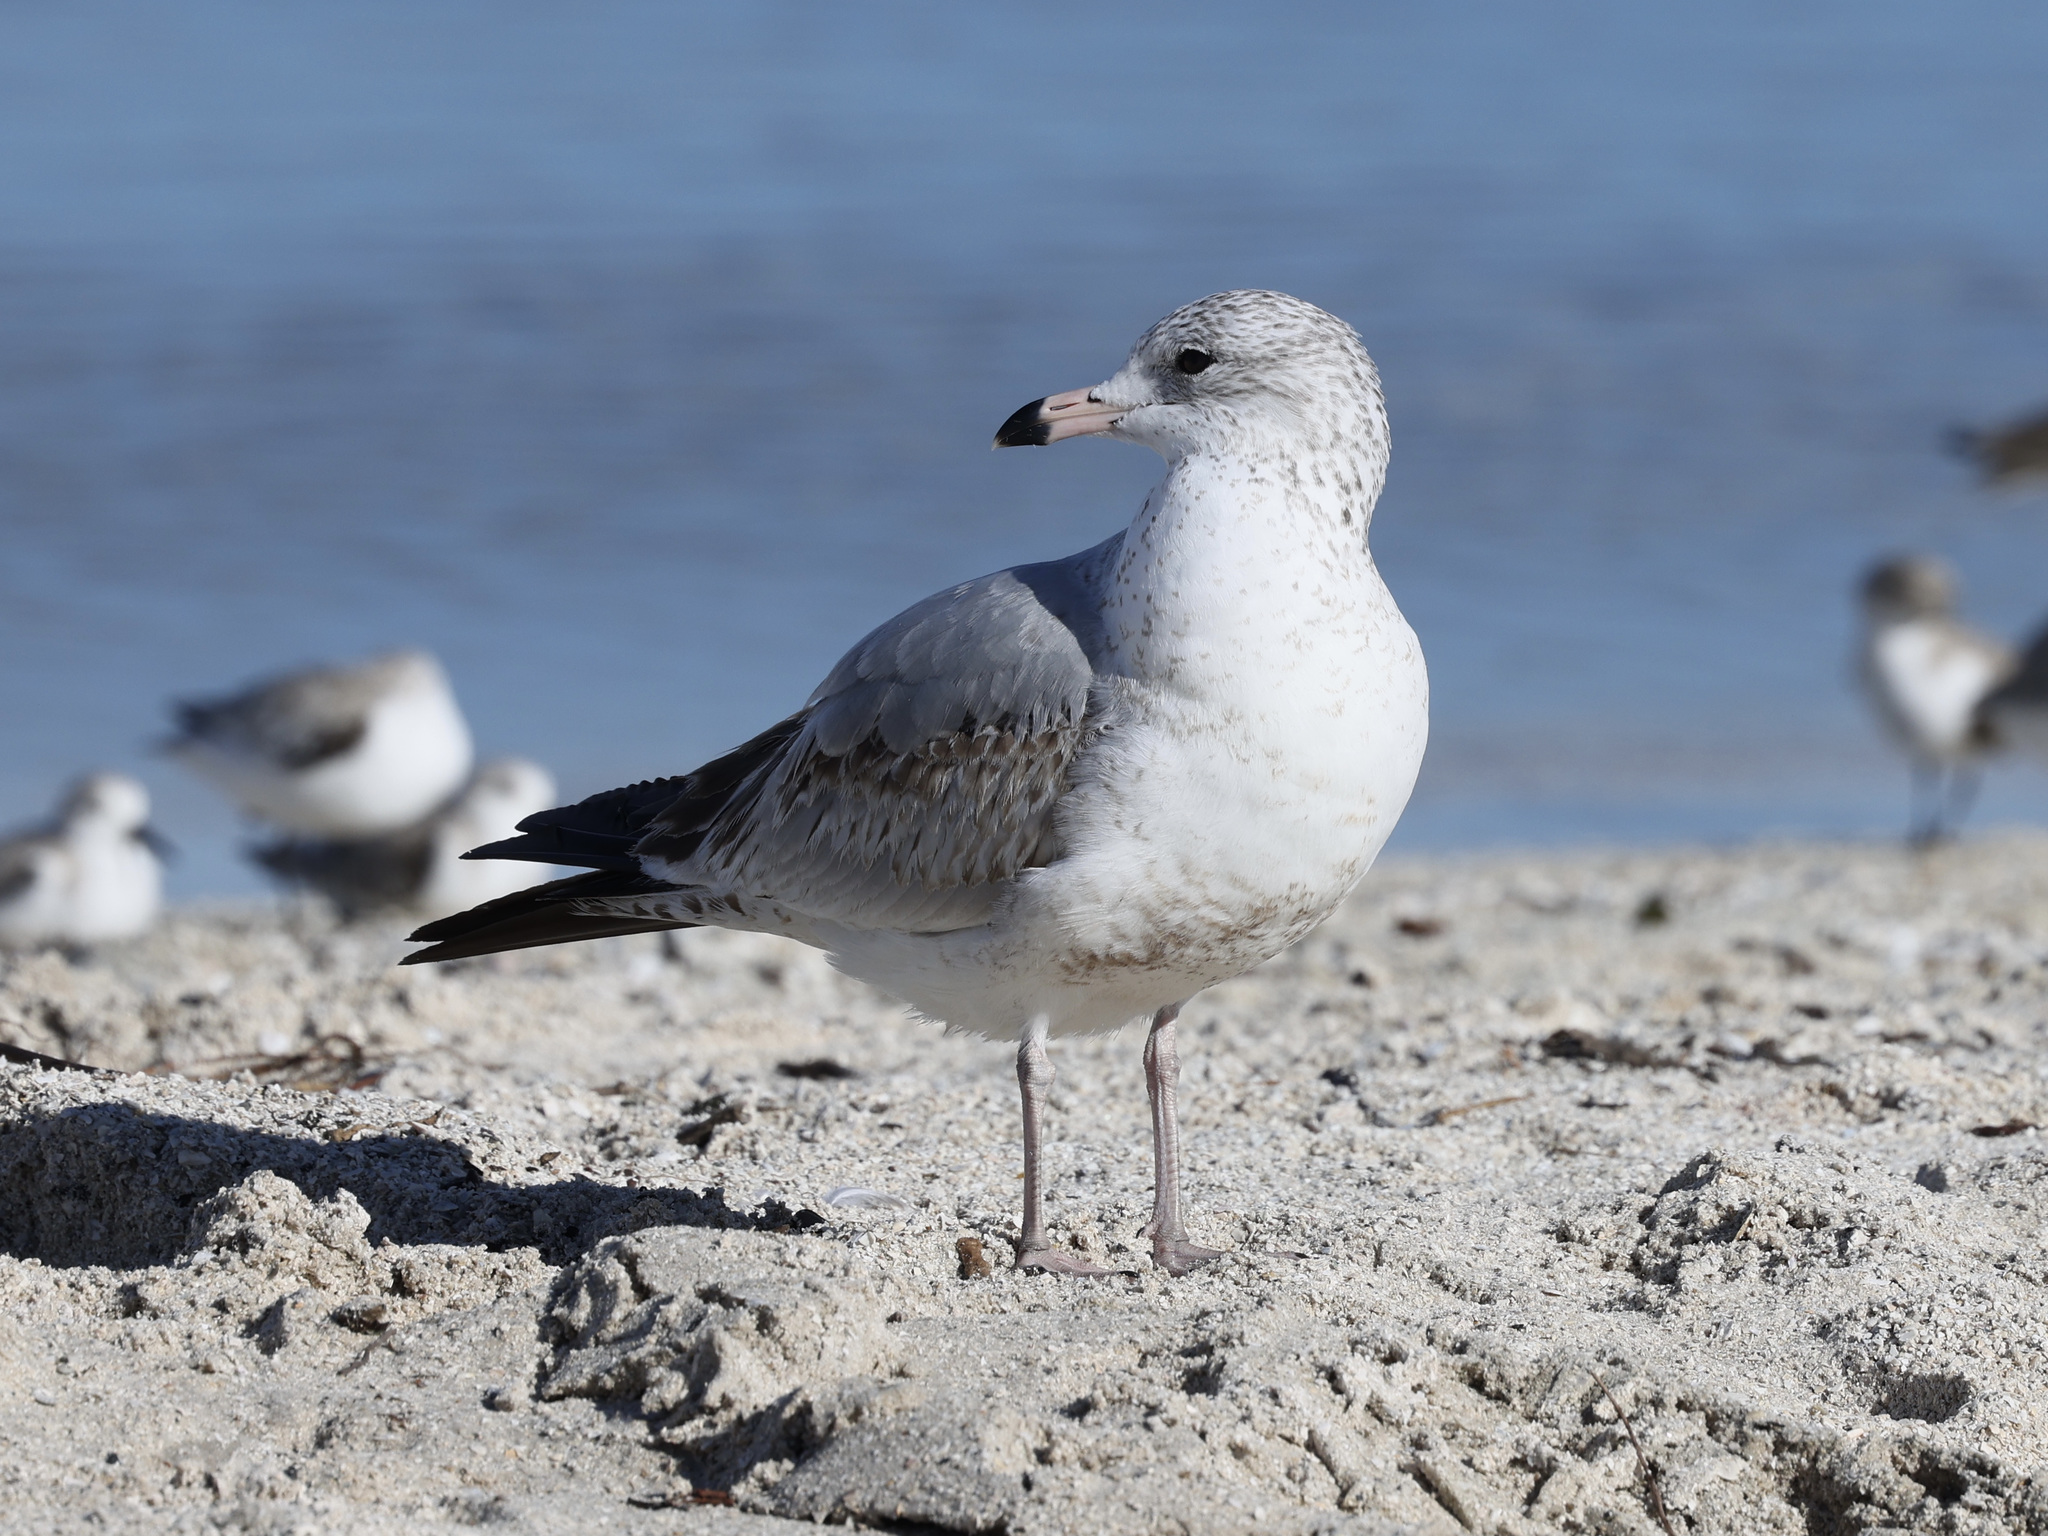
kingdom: Animalia
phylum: Chordata
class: Aves
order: Charadriiformes
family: Laridae
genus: Larus
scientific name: Larus delawarensis
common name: Ring-billed gull
